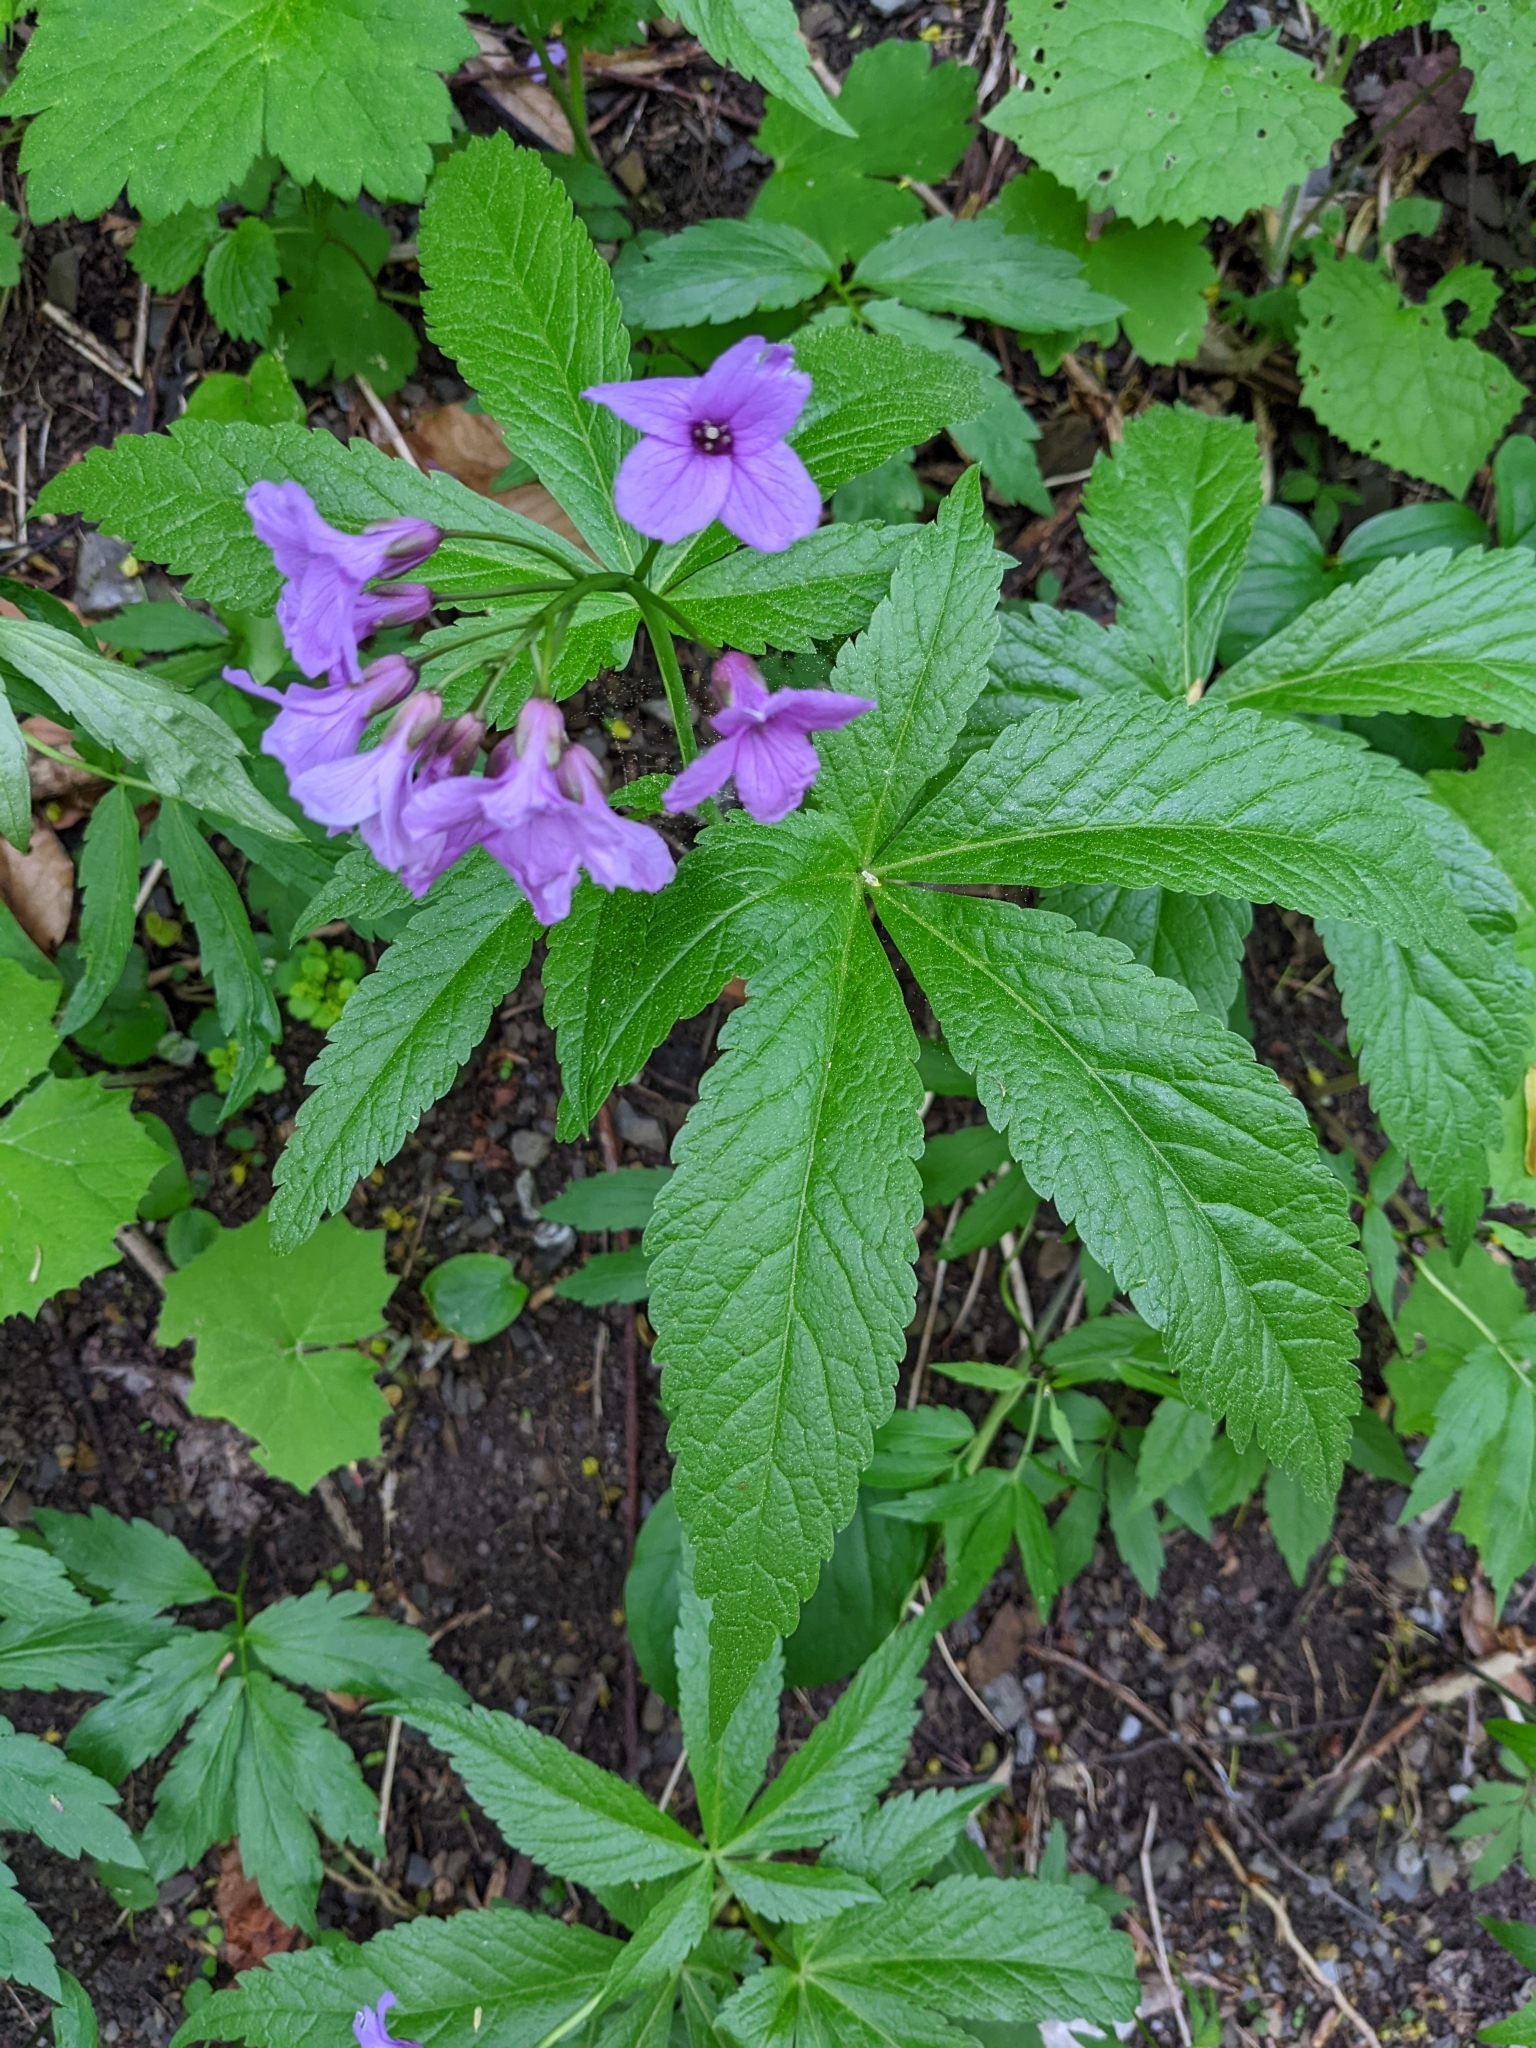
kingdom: Plantae
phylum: Tracheophyta
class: Magnoliopsida
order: Brassicales
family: Brassicaceae
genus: Cardamine
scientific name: Cardamine pentaphyllos
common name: Five-leaflet bitter-cress
